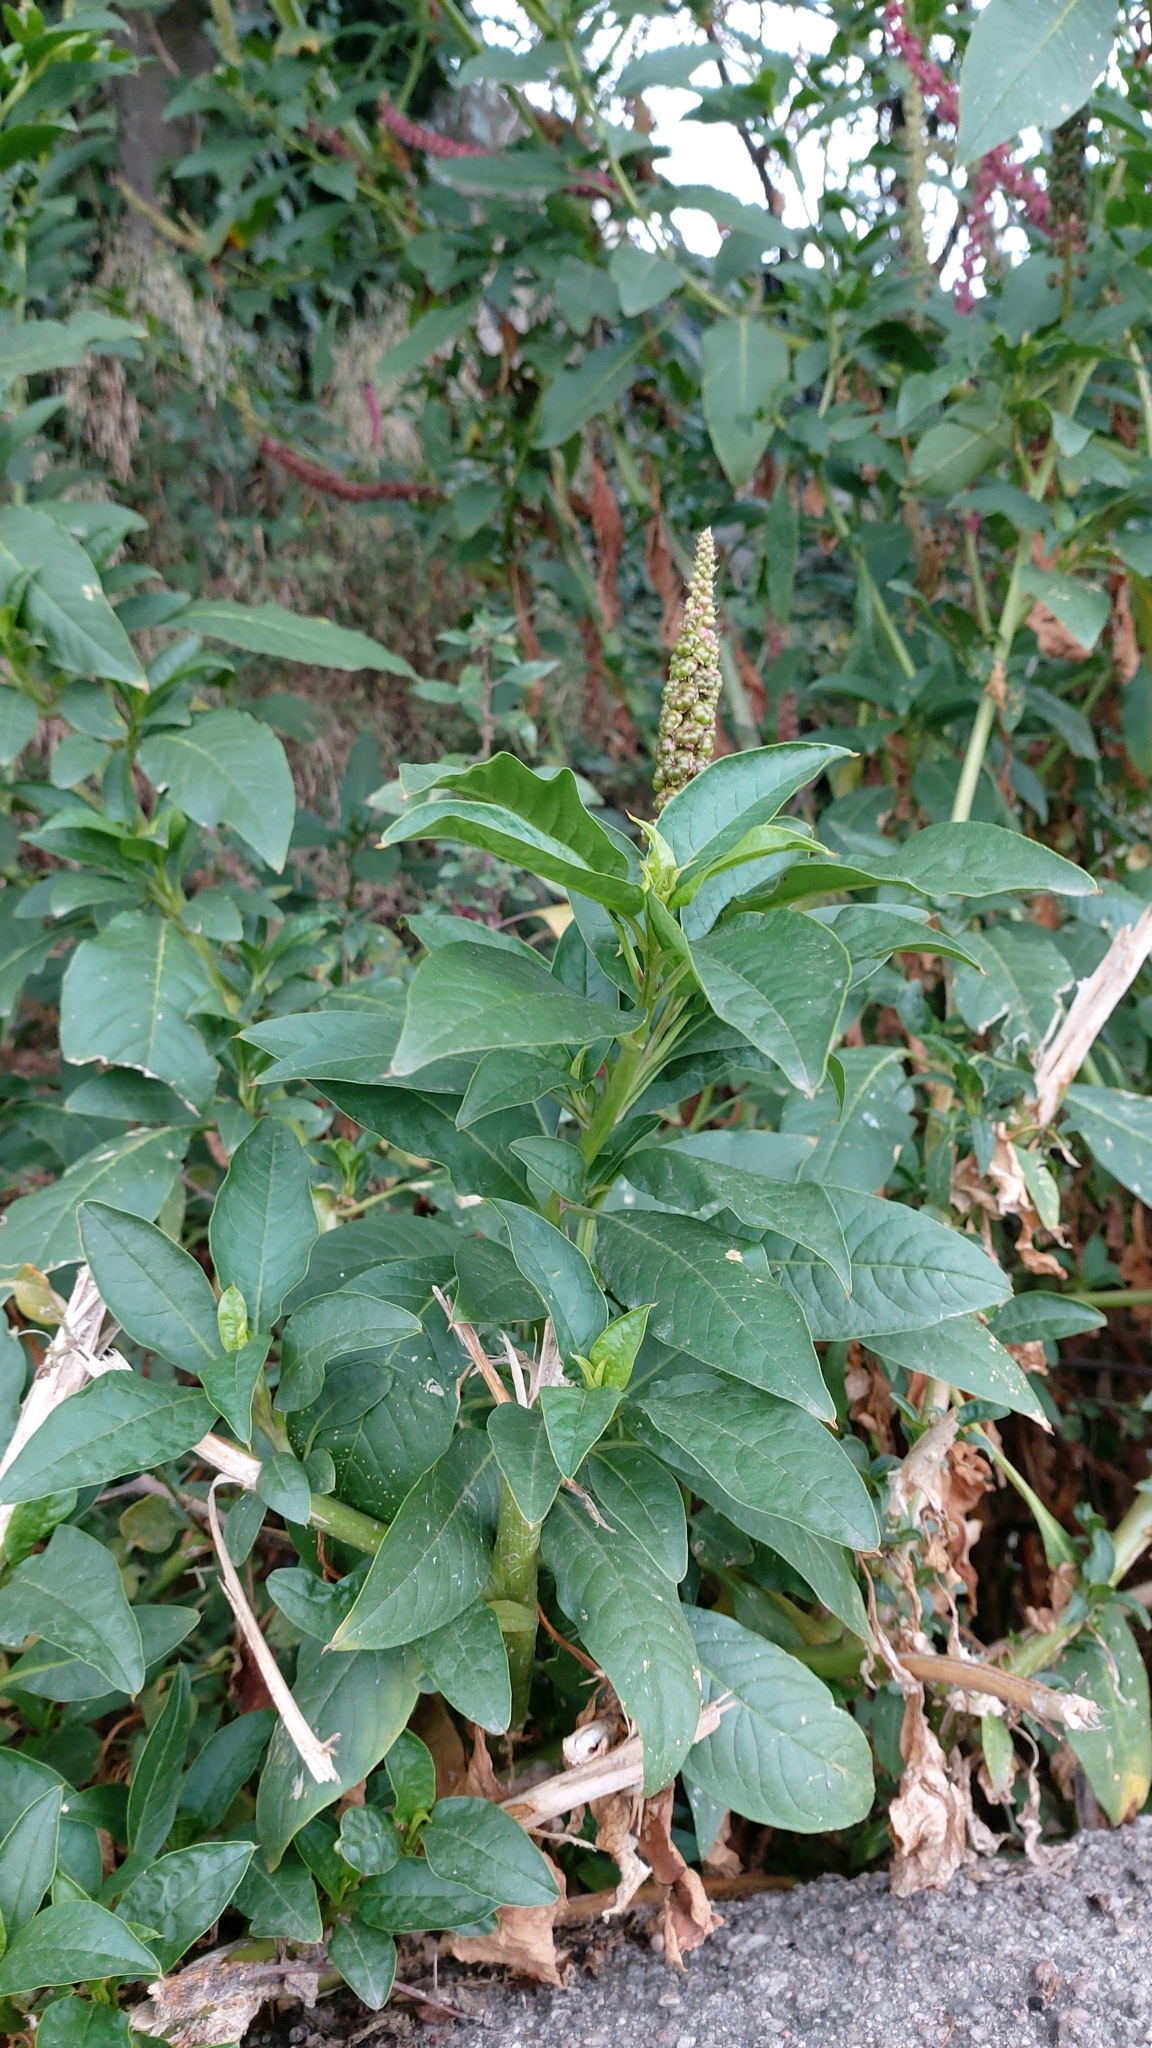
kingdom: Plantae
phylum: Tracheophyta
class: Magnoliopsida
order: Caryophyllales
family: Phytolaccaceae
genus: Phytolacca
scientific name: Phytolacca heterotepala
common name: Mexican pokeweed
